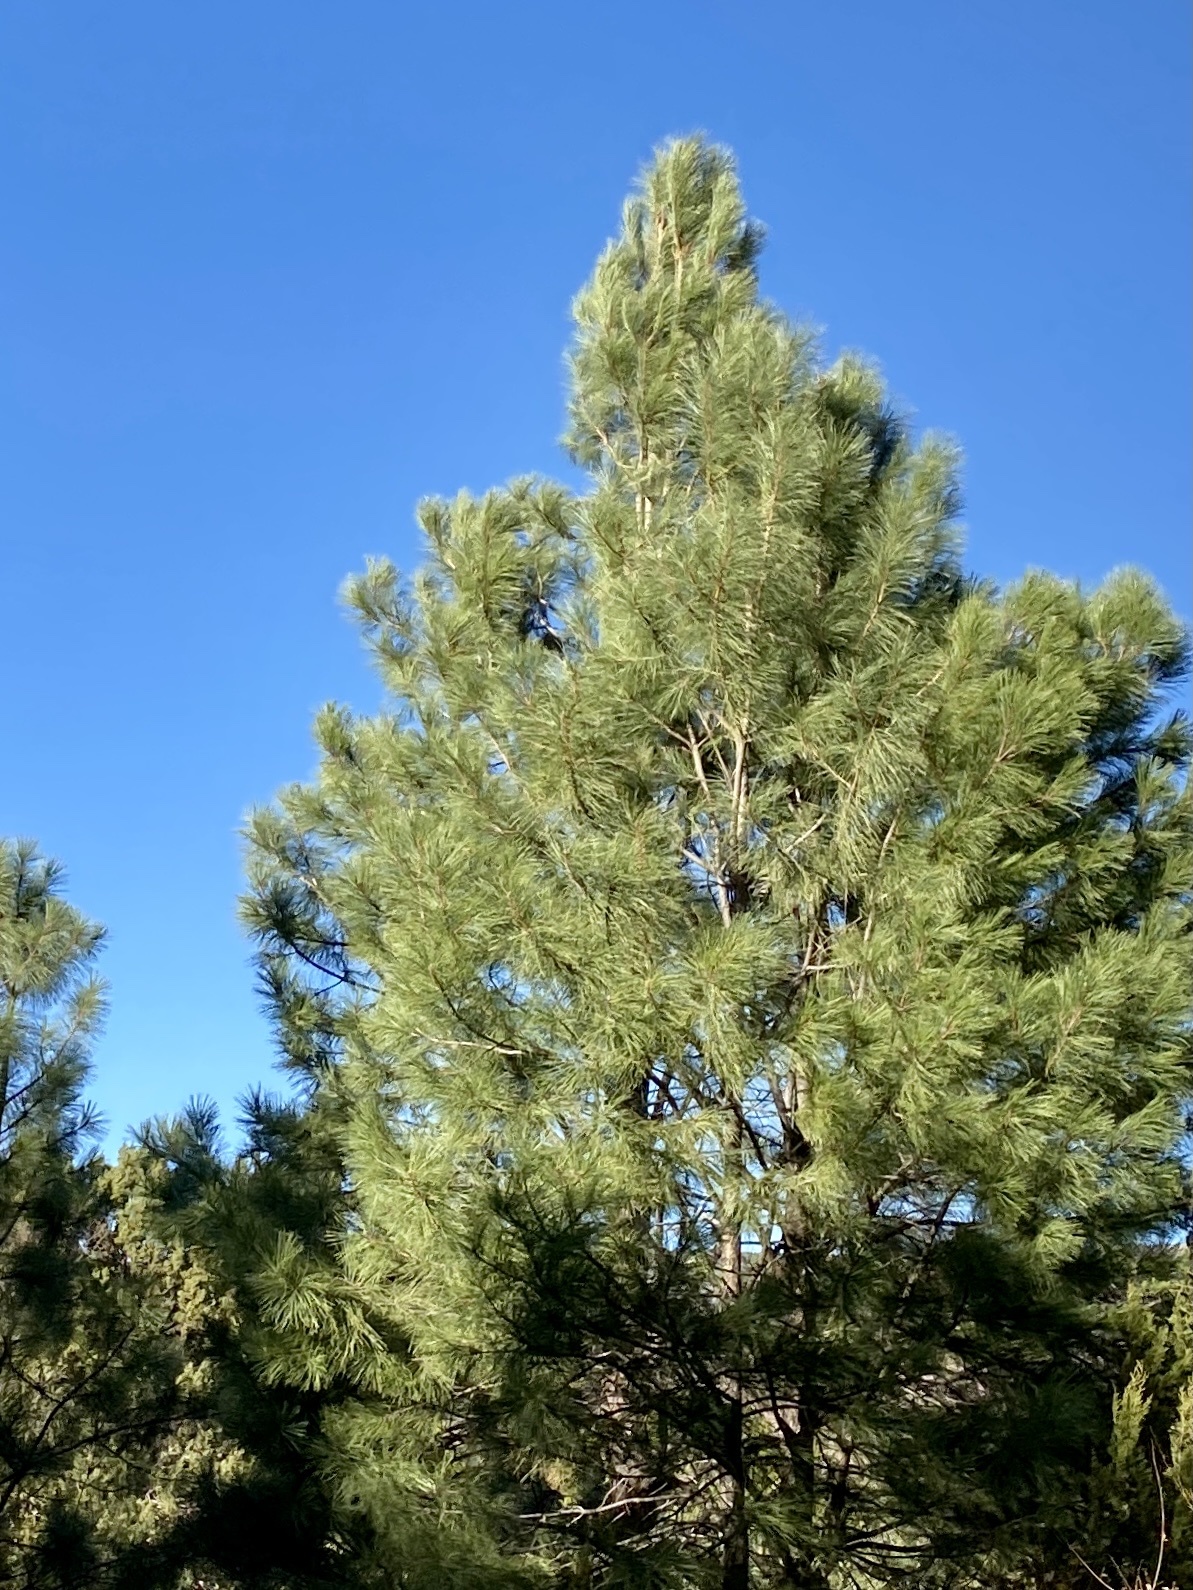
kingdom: Plantae
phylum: Tracheophyta
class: Pinopsida
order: Pinales
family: Pinaceae
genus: Pinus
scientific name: Pinus ponderosa
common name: Western yellow-pine
